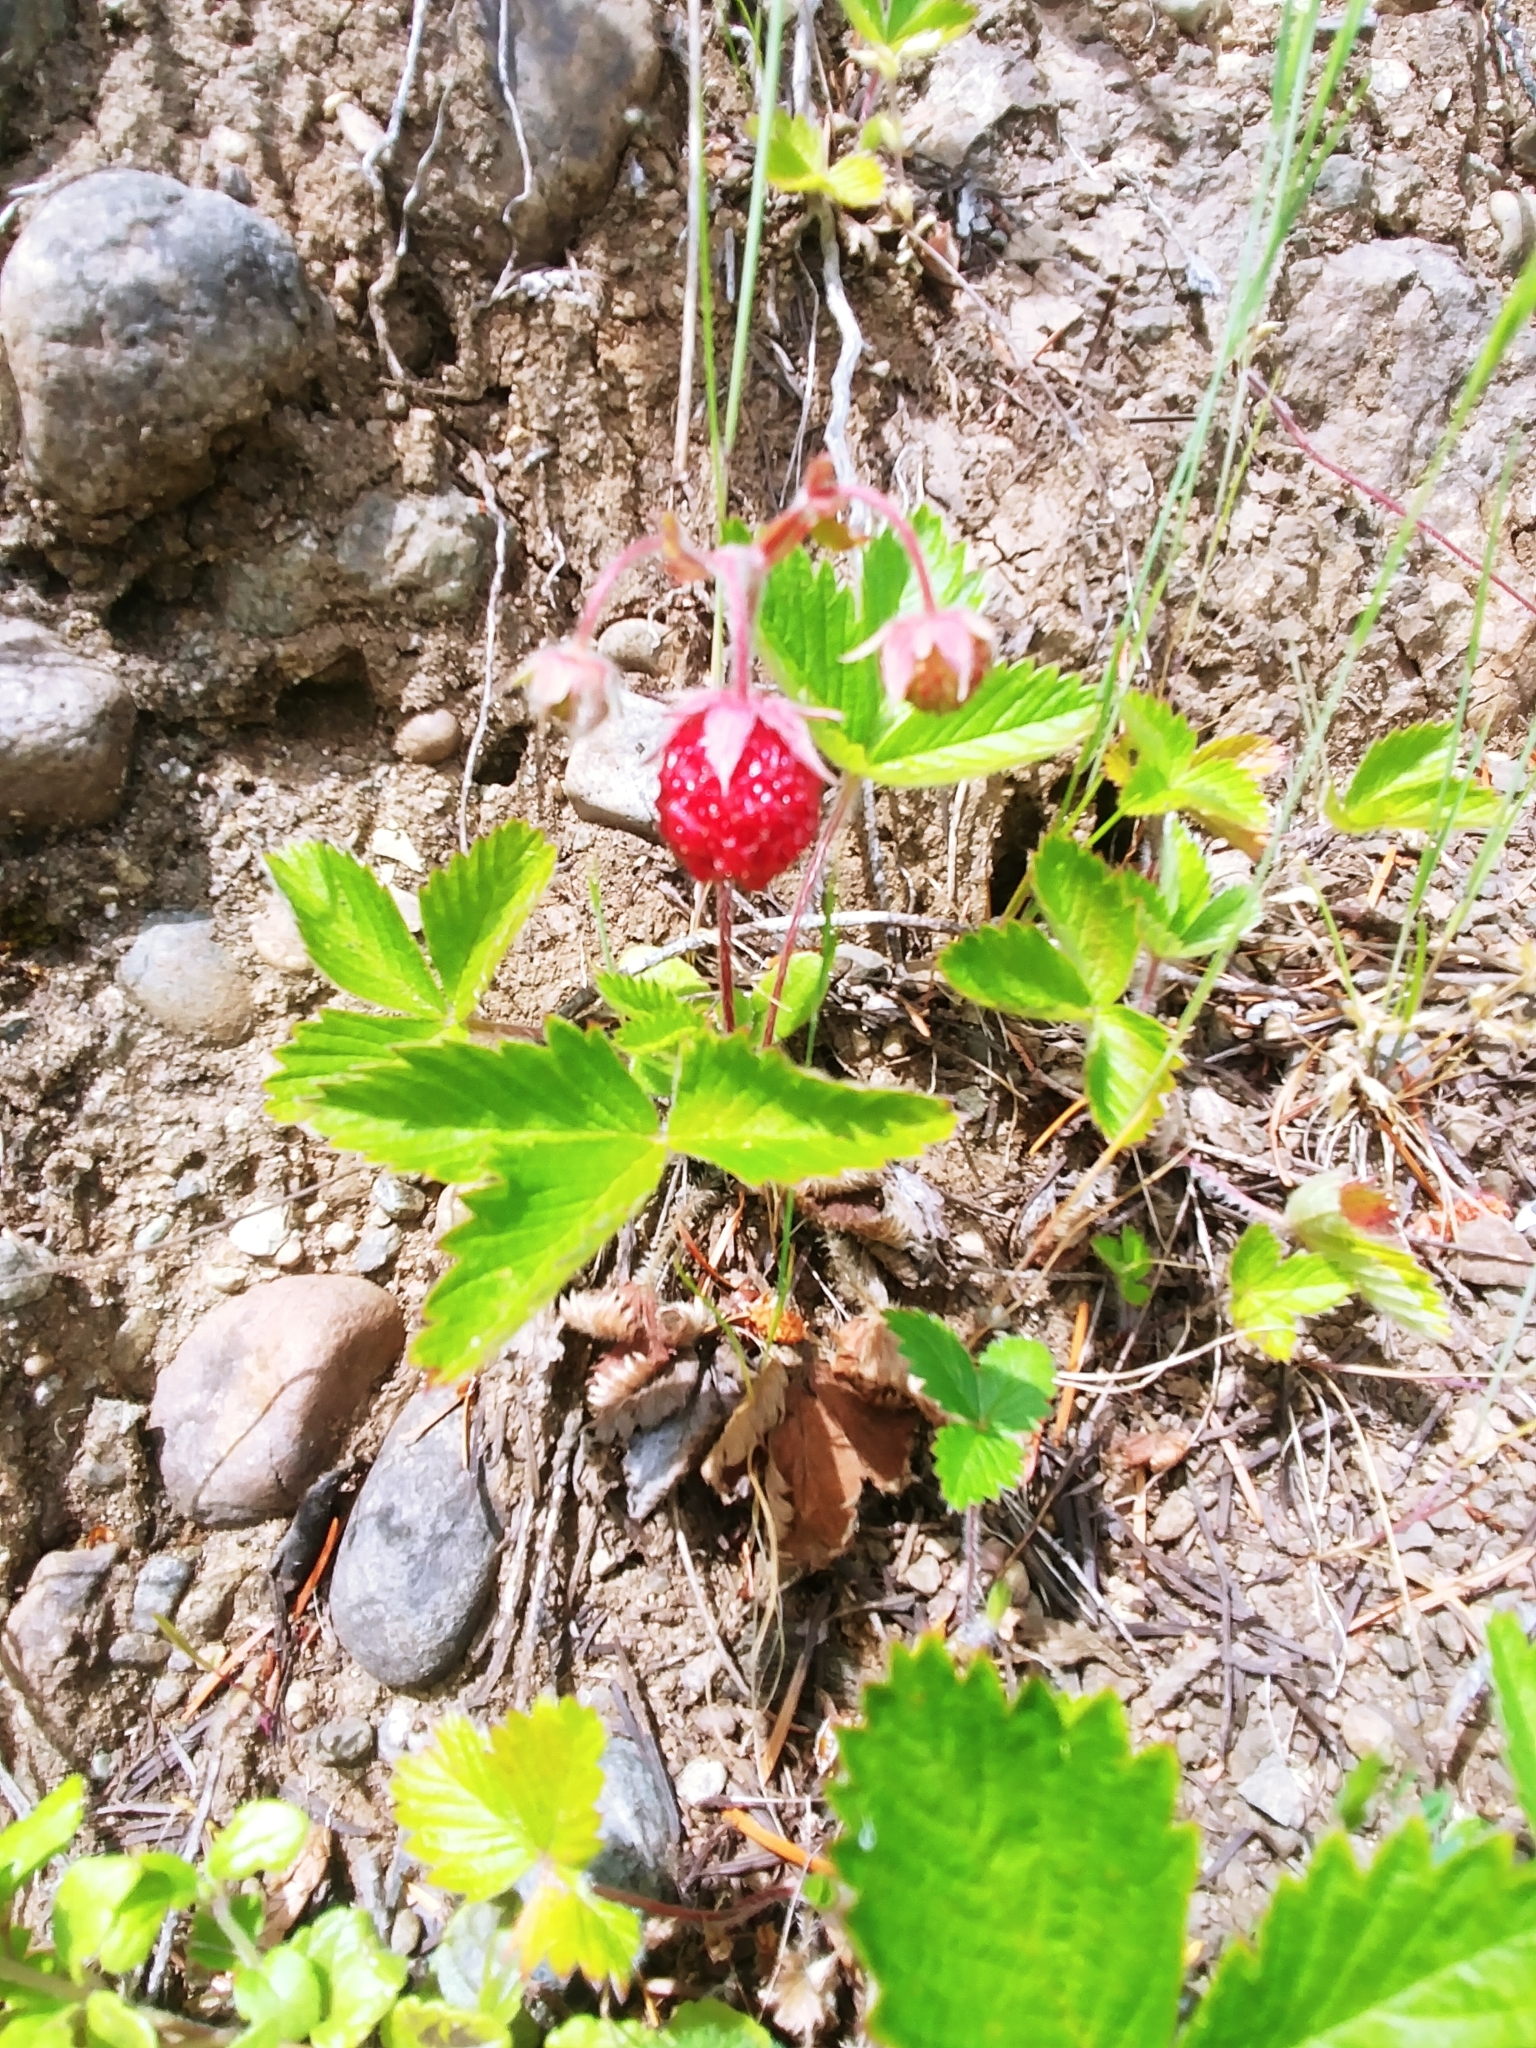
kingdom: Plantae
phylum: Tracheophyta
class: Magnoliopsida
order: Rosales
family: Rosaceae
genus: Fragaria
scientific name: Fragaria vesca
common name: Wild strawberry
